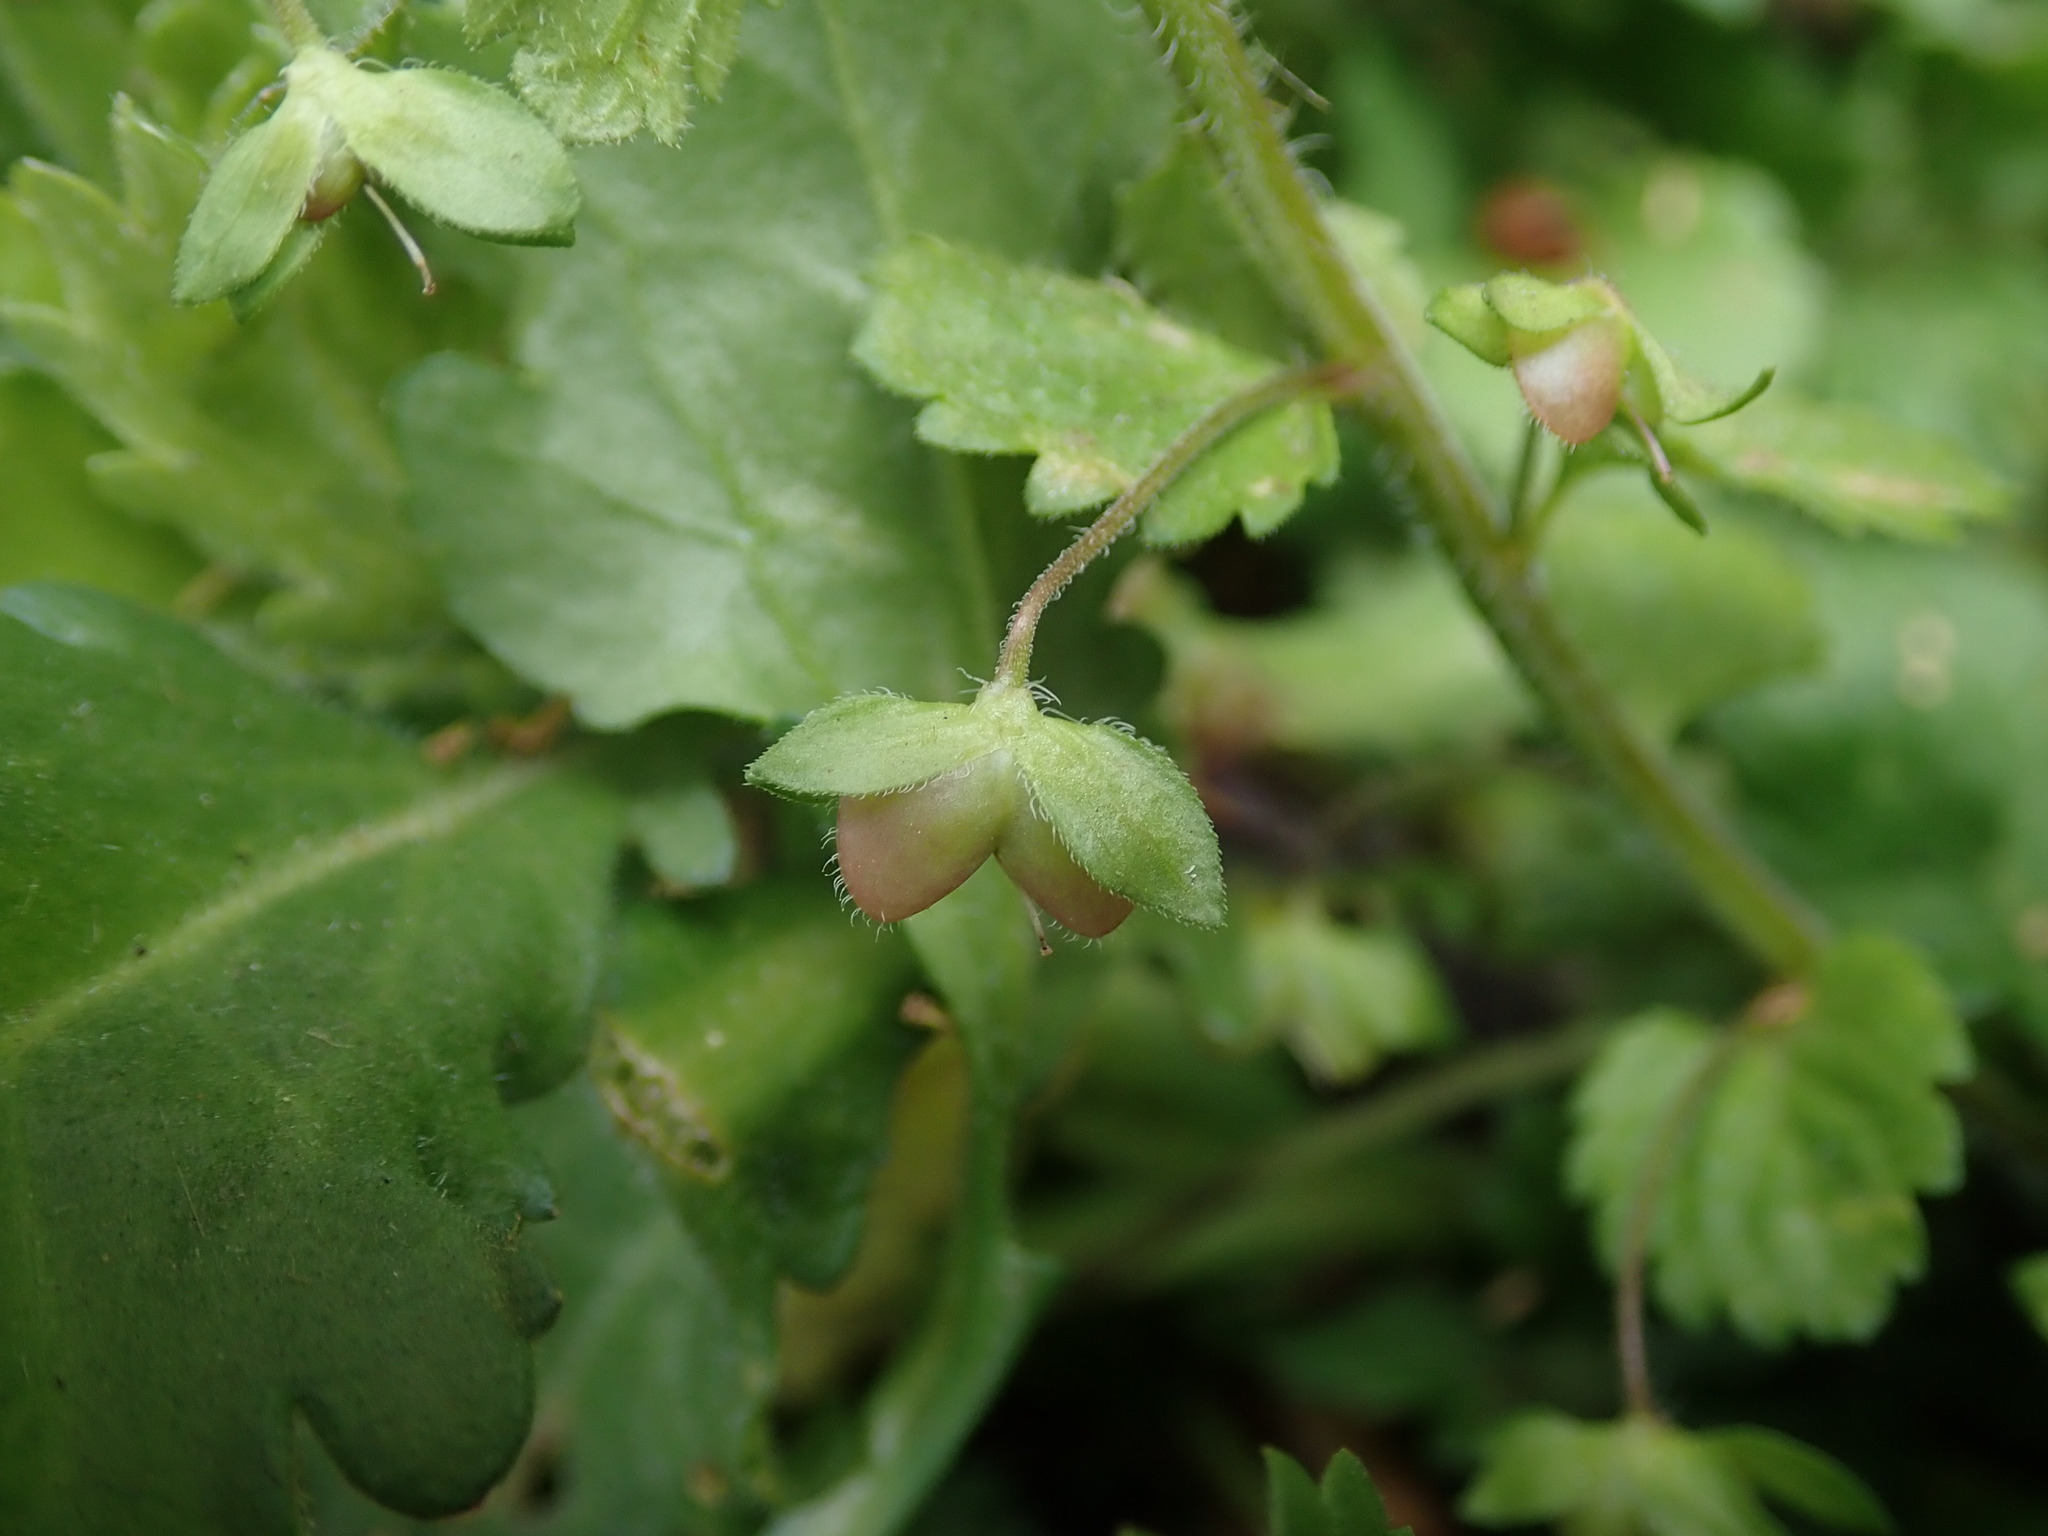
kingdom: Plantae
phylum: Tracheophyta
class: Magnoliopsida
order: Lamiales
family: Plantaginaceae
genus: Veronica
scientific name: Veronica persica
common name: Common field-speedwell
